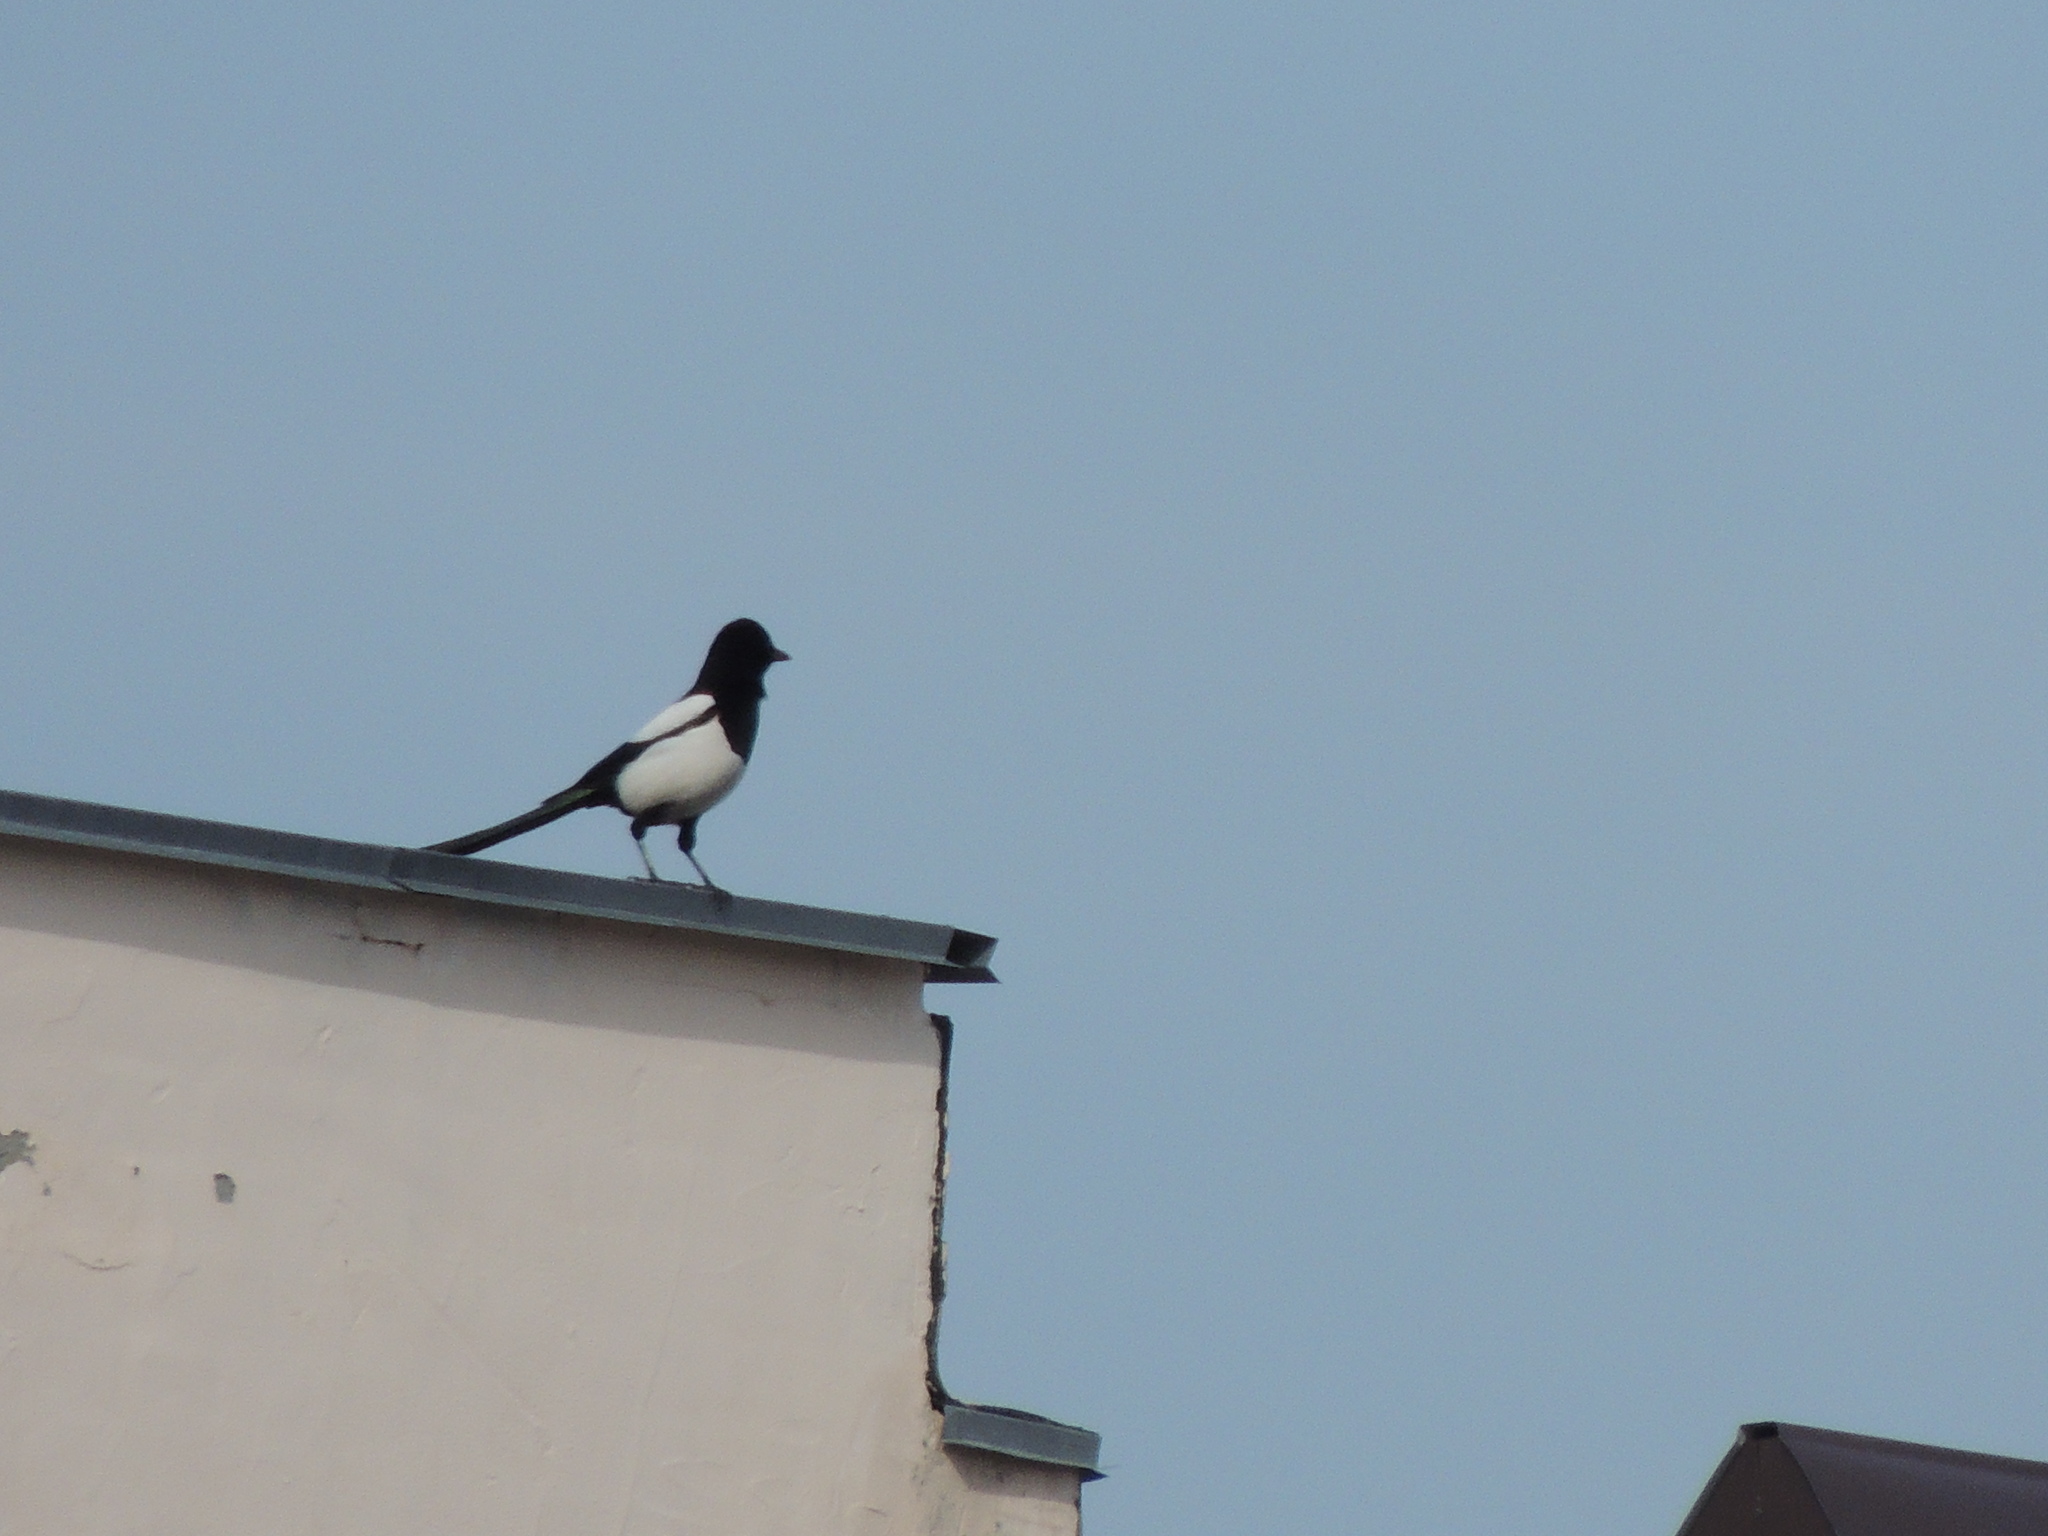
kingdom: Animalia
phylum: Chordata
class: Aves
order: Passeriformes
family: Corvidae
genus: Pica
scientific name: Pica pica
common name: Eurasian magpie
